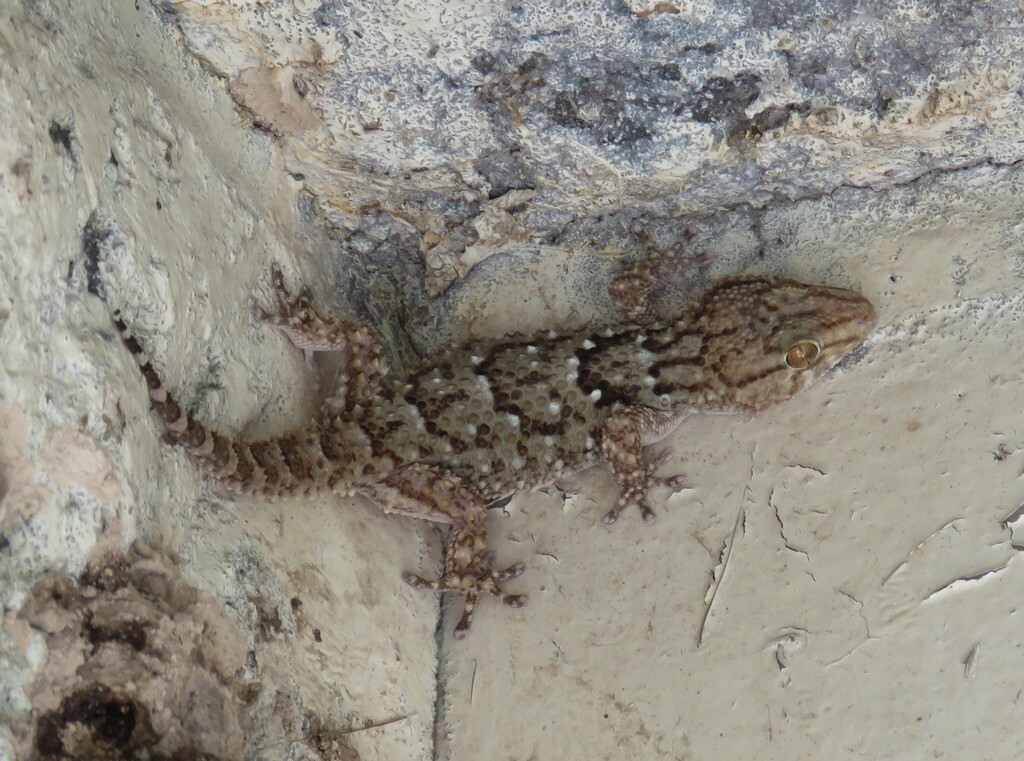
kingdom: Animalia
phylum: Chordata
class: Squamata
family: Gekkonidae
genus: Chondrodactylus
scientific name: Chondrodactylus laevigatus
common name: Fischer's thick-toed gecko
